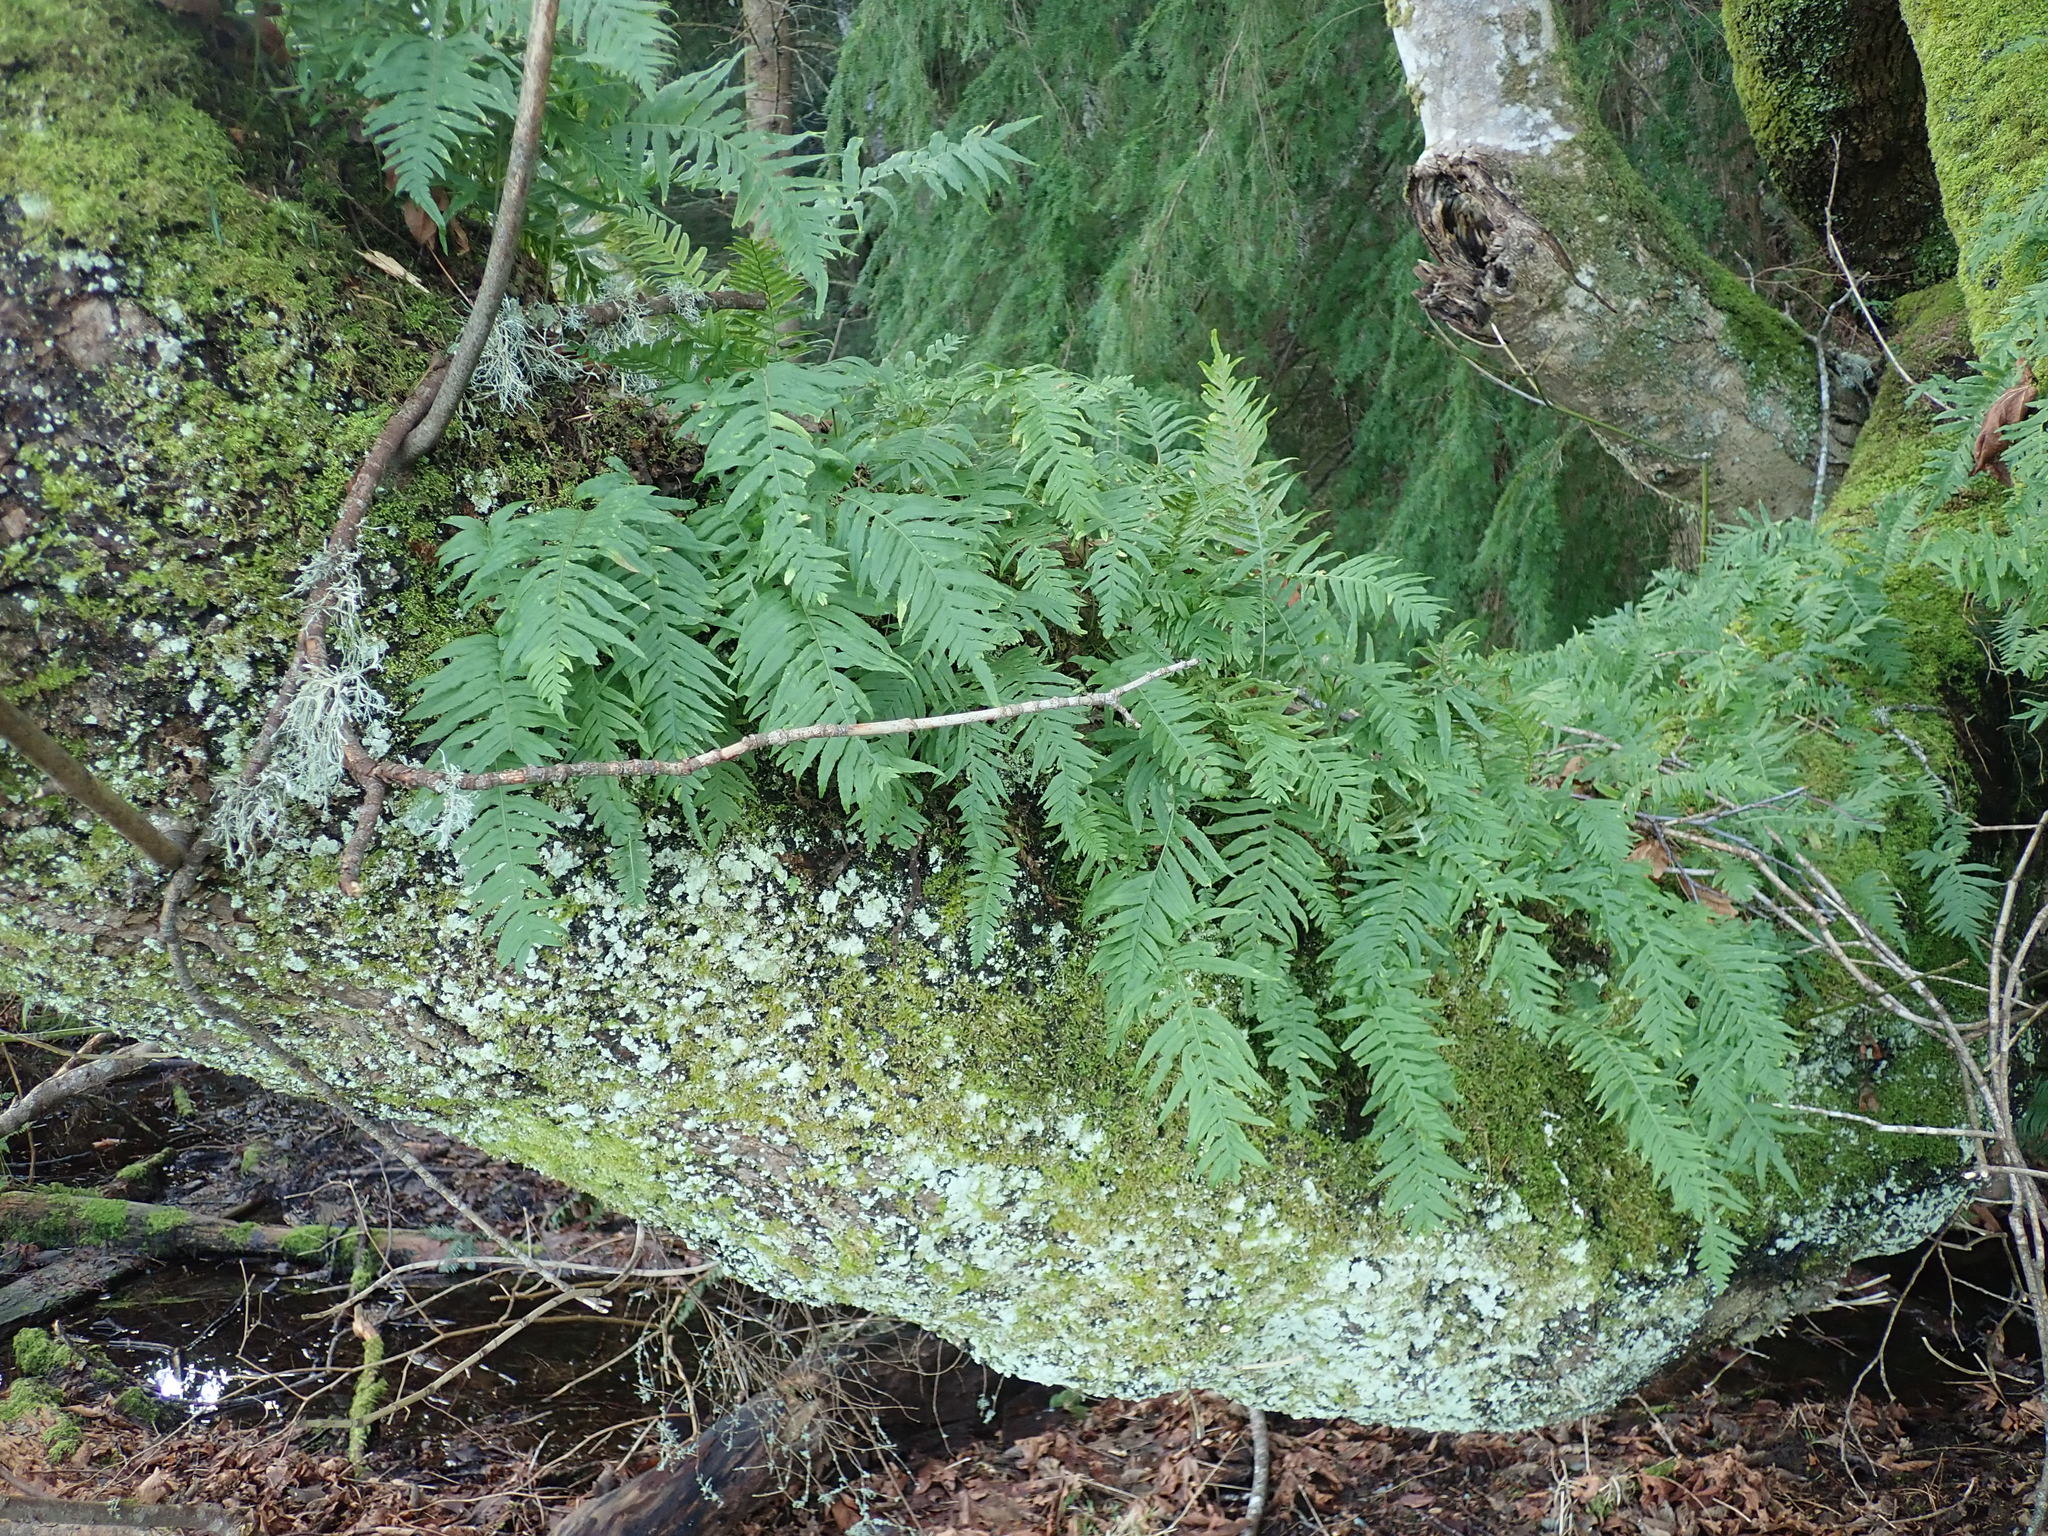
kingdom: Plantae
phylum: Tracheophyta
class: Polypodiopsida
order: Polypodiales
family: Polypodiaceae
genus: Polypodium
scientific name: Polypodium glycyrrhiza
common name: Licorice fern
